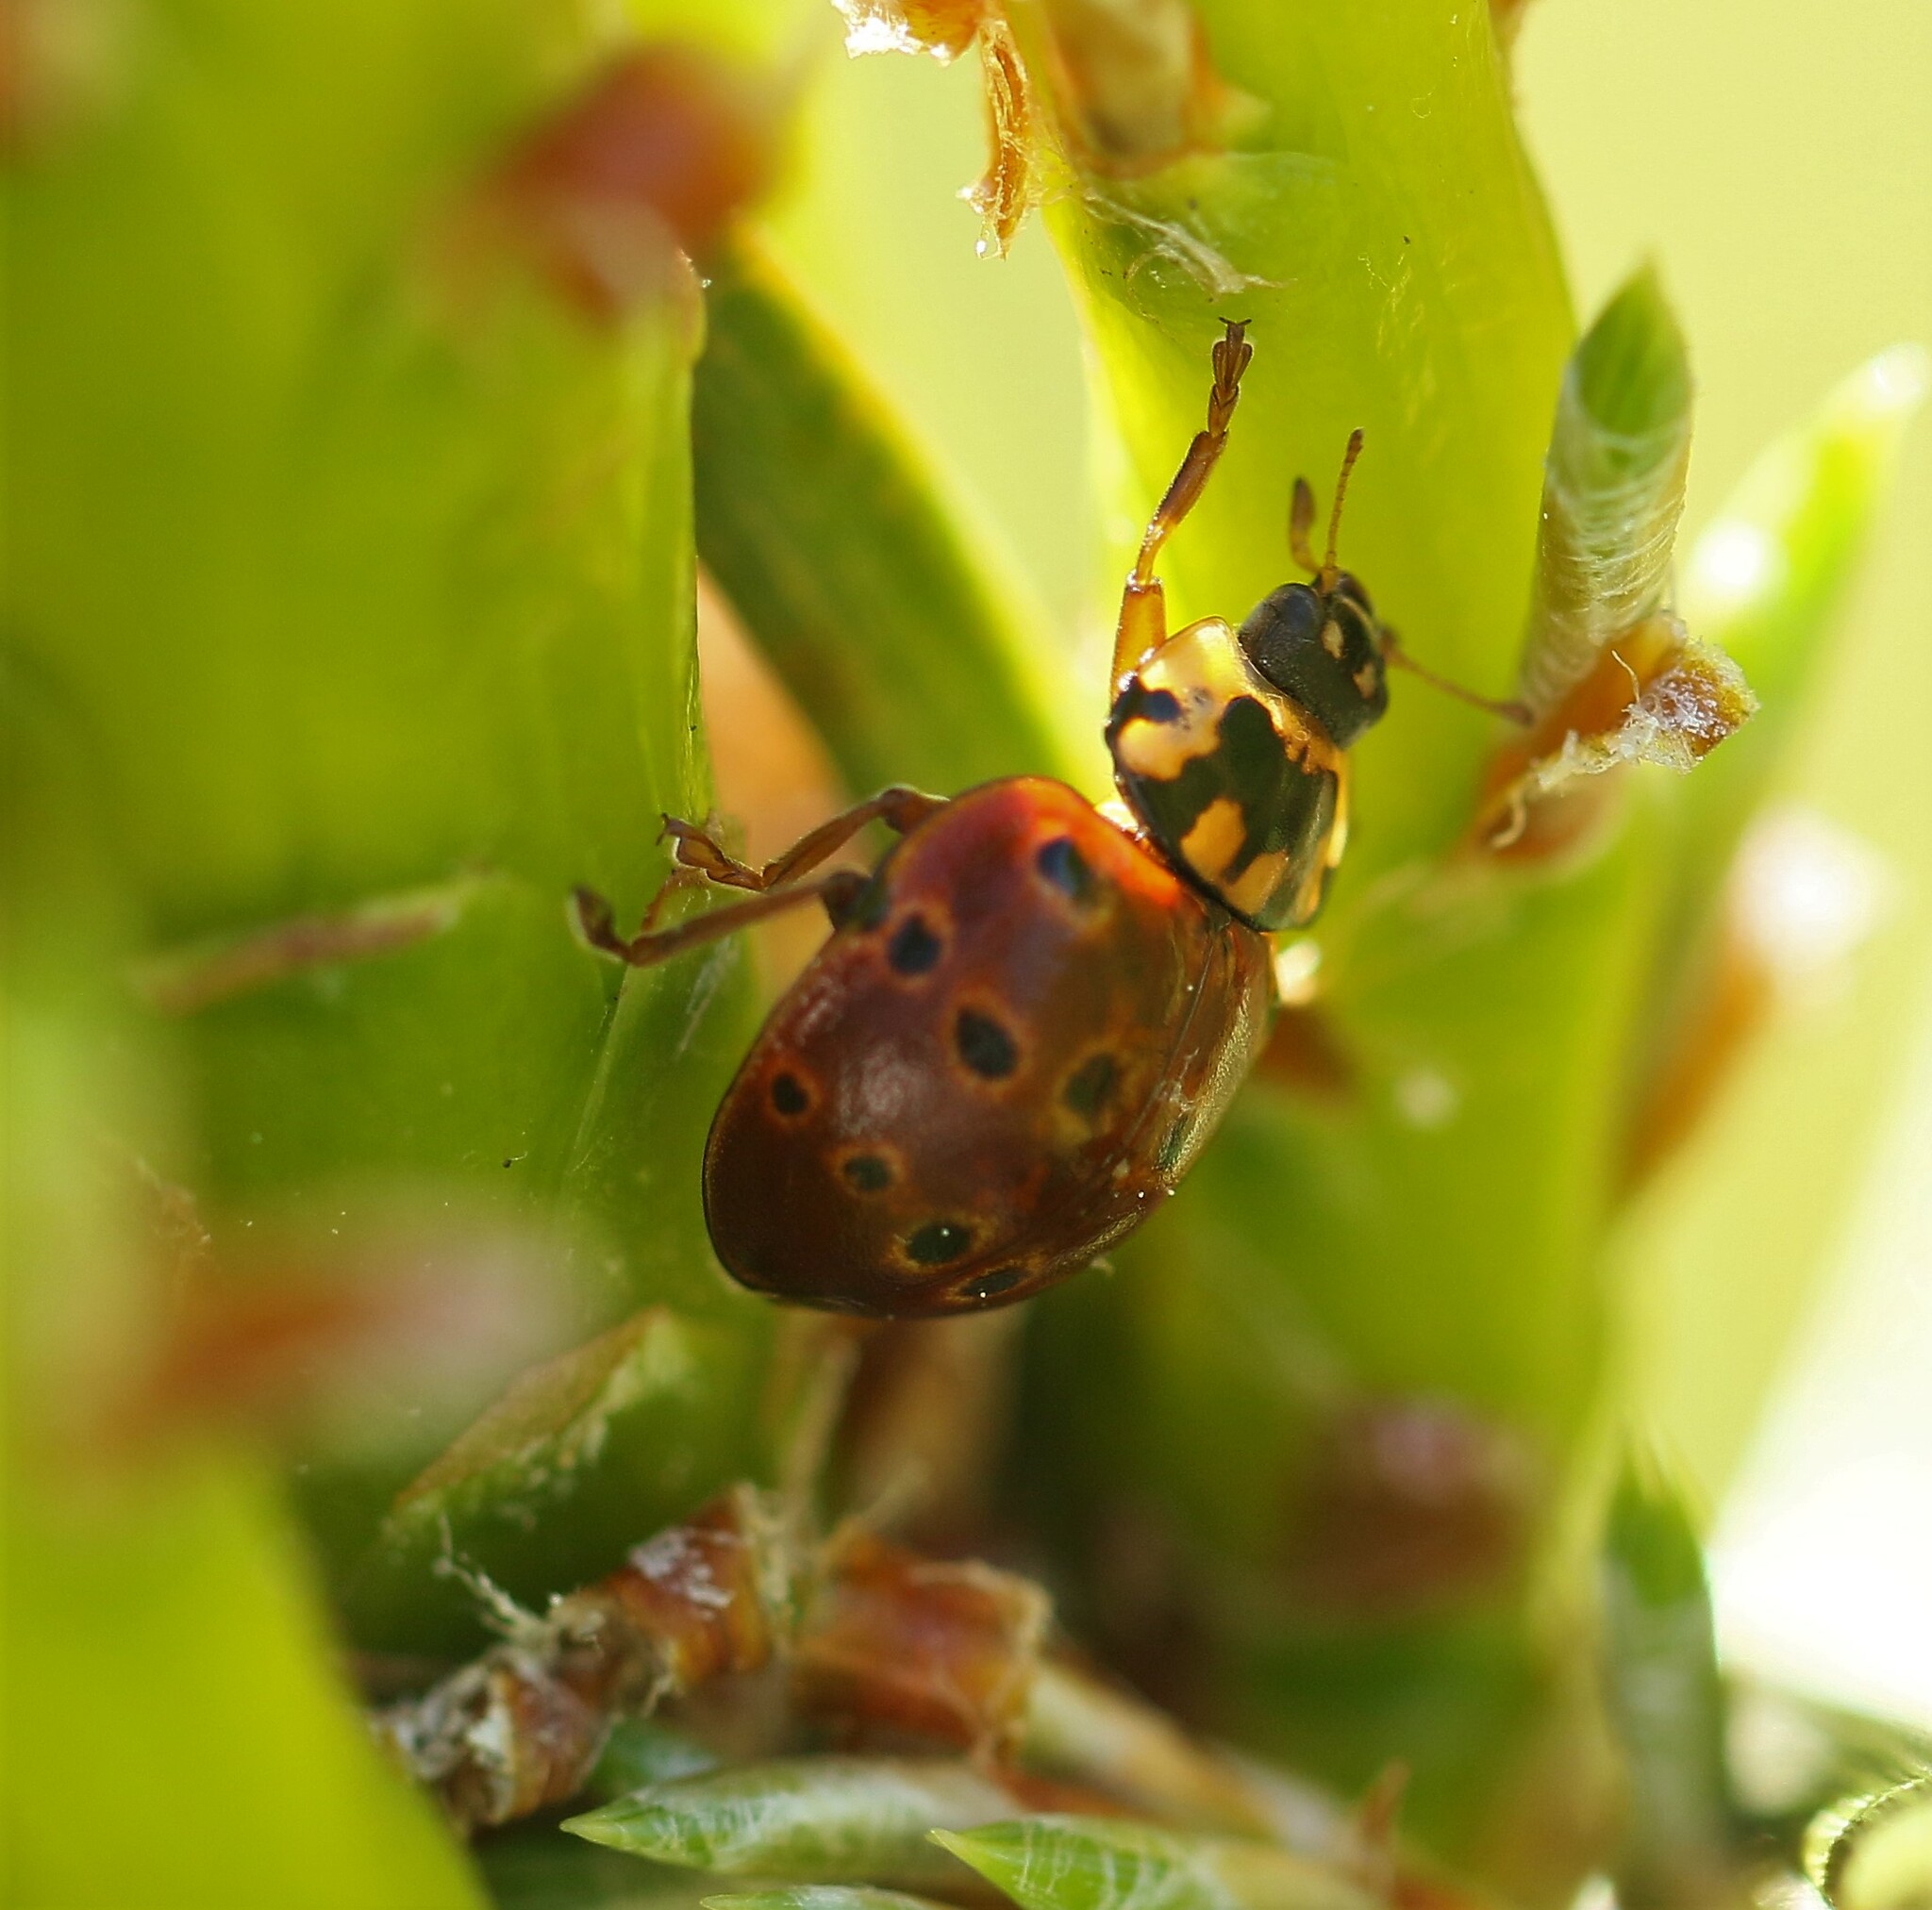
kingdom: Animalia
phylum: Arthropoda
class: Insecta
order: Coleoptera
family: Coccinellidae
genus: Anatis
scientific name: Anatis mali
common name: Eye-spotted lady beetle
